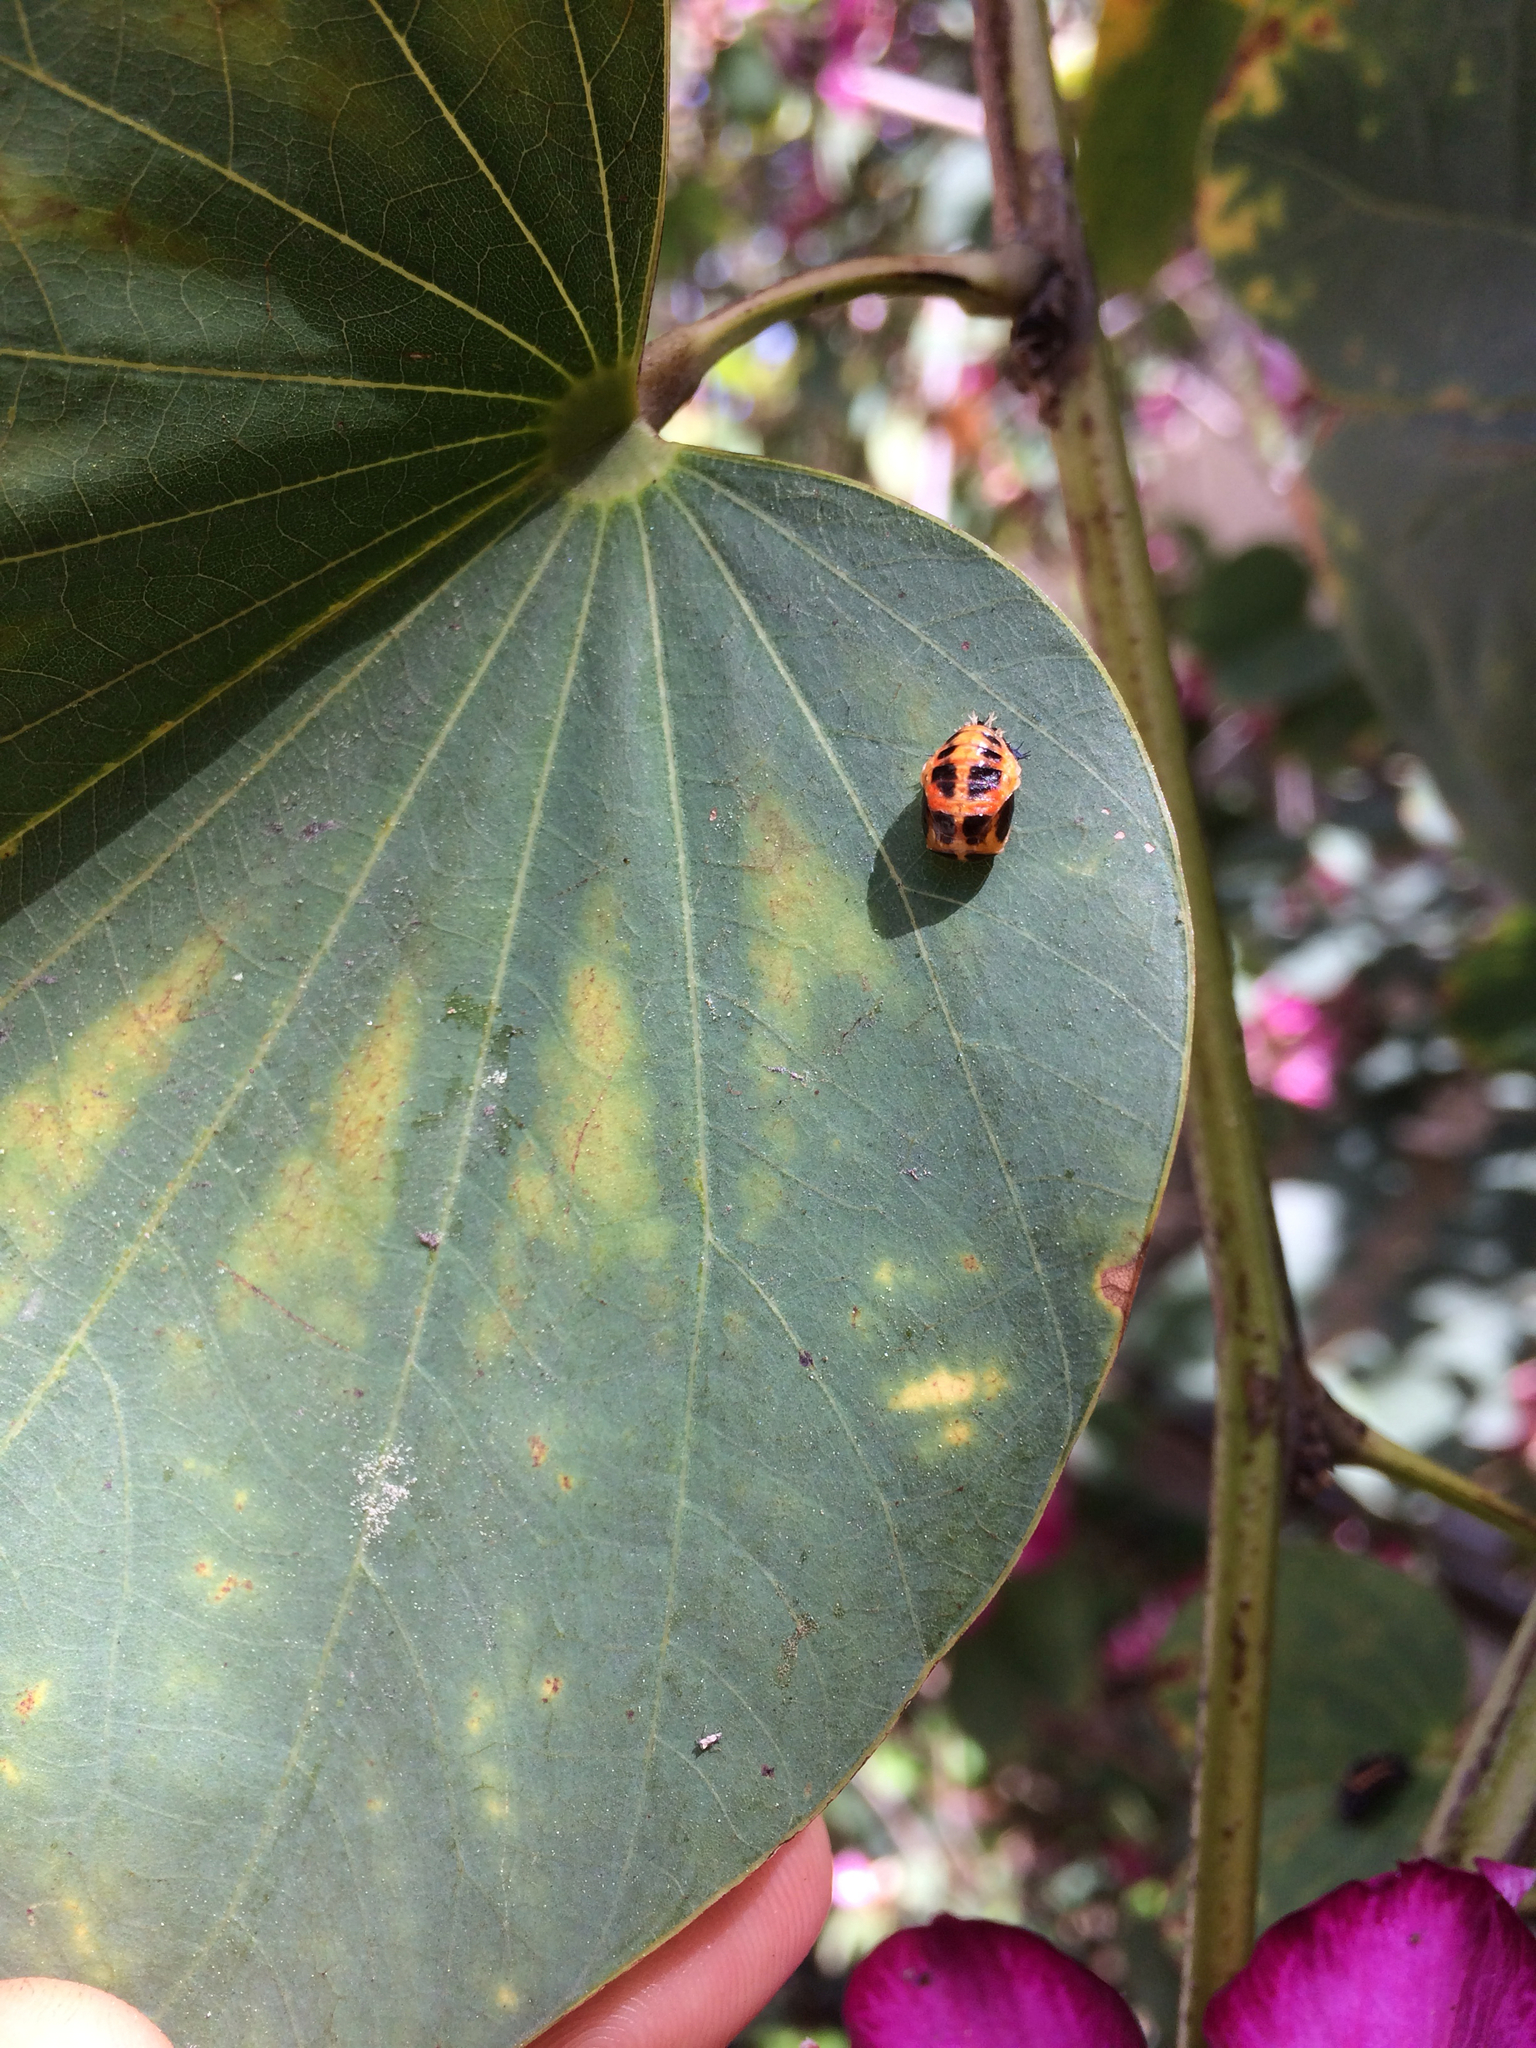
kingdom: Animalia
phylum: Arthropoda
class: Insecta
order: Coleoptera
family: Coccinellidae
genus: Harmonia
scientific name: Harmonia axyridis
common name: Harlequin ladybird
